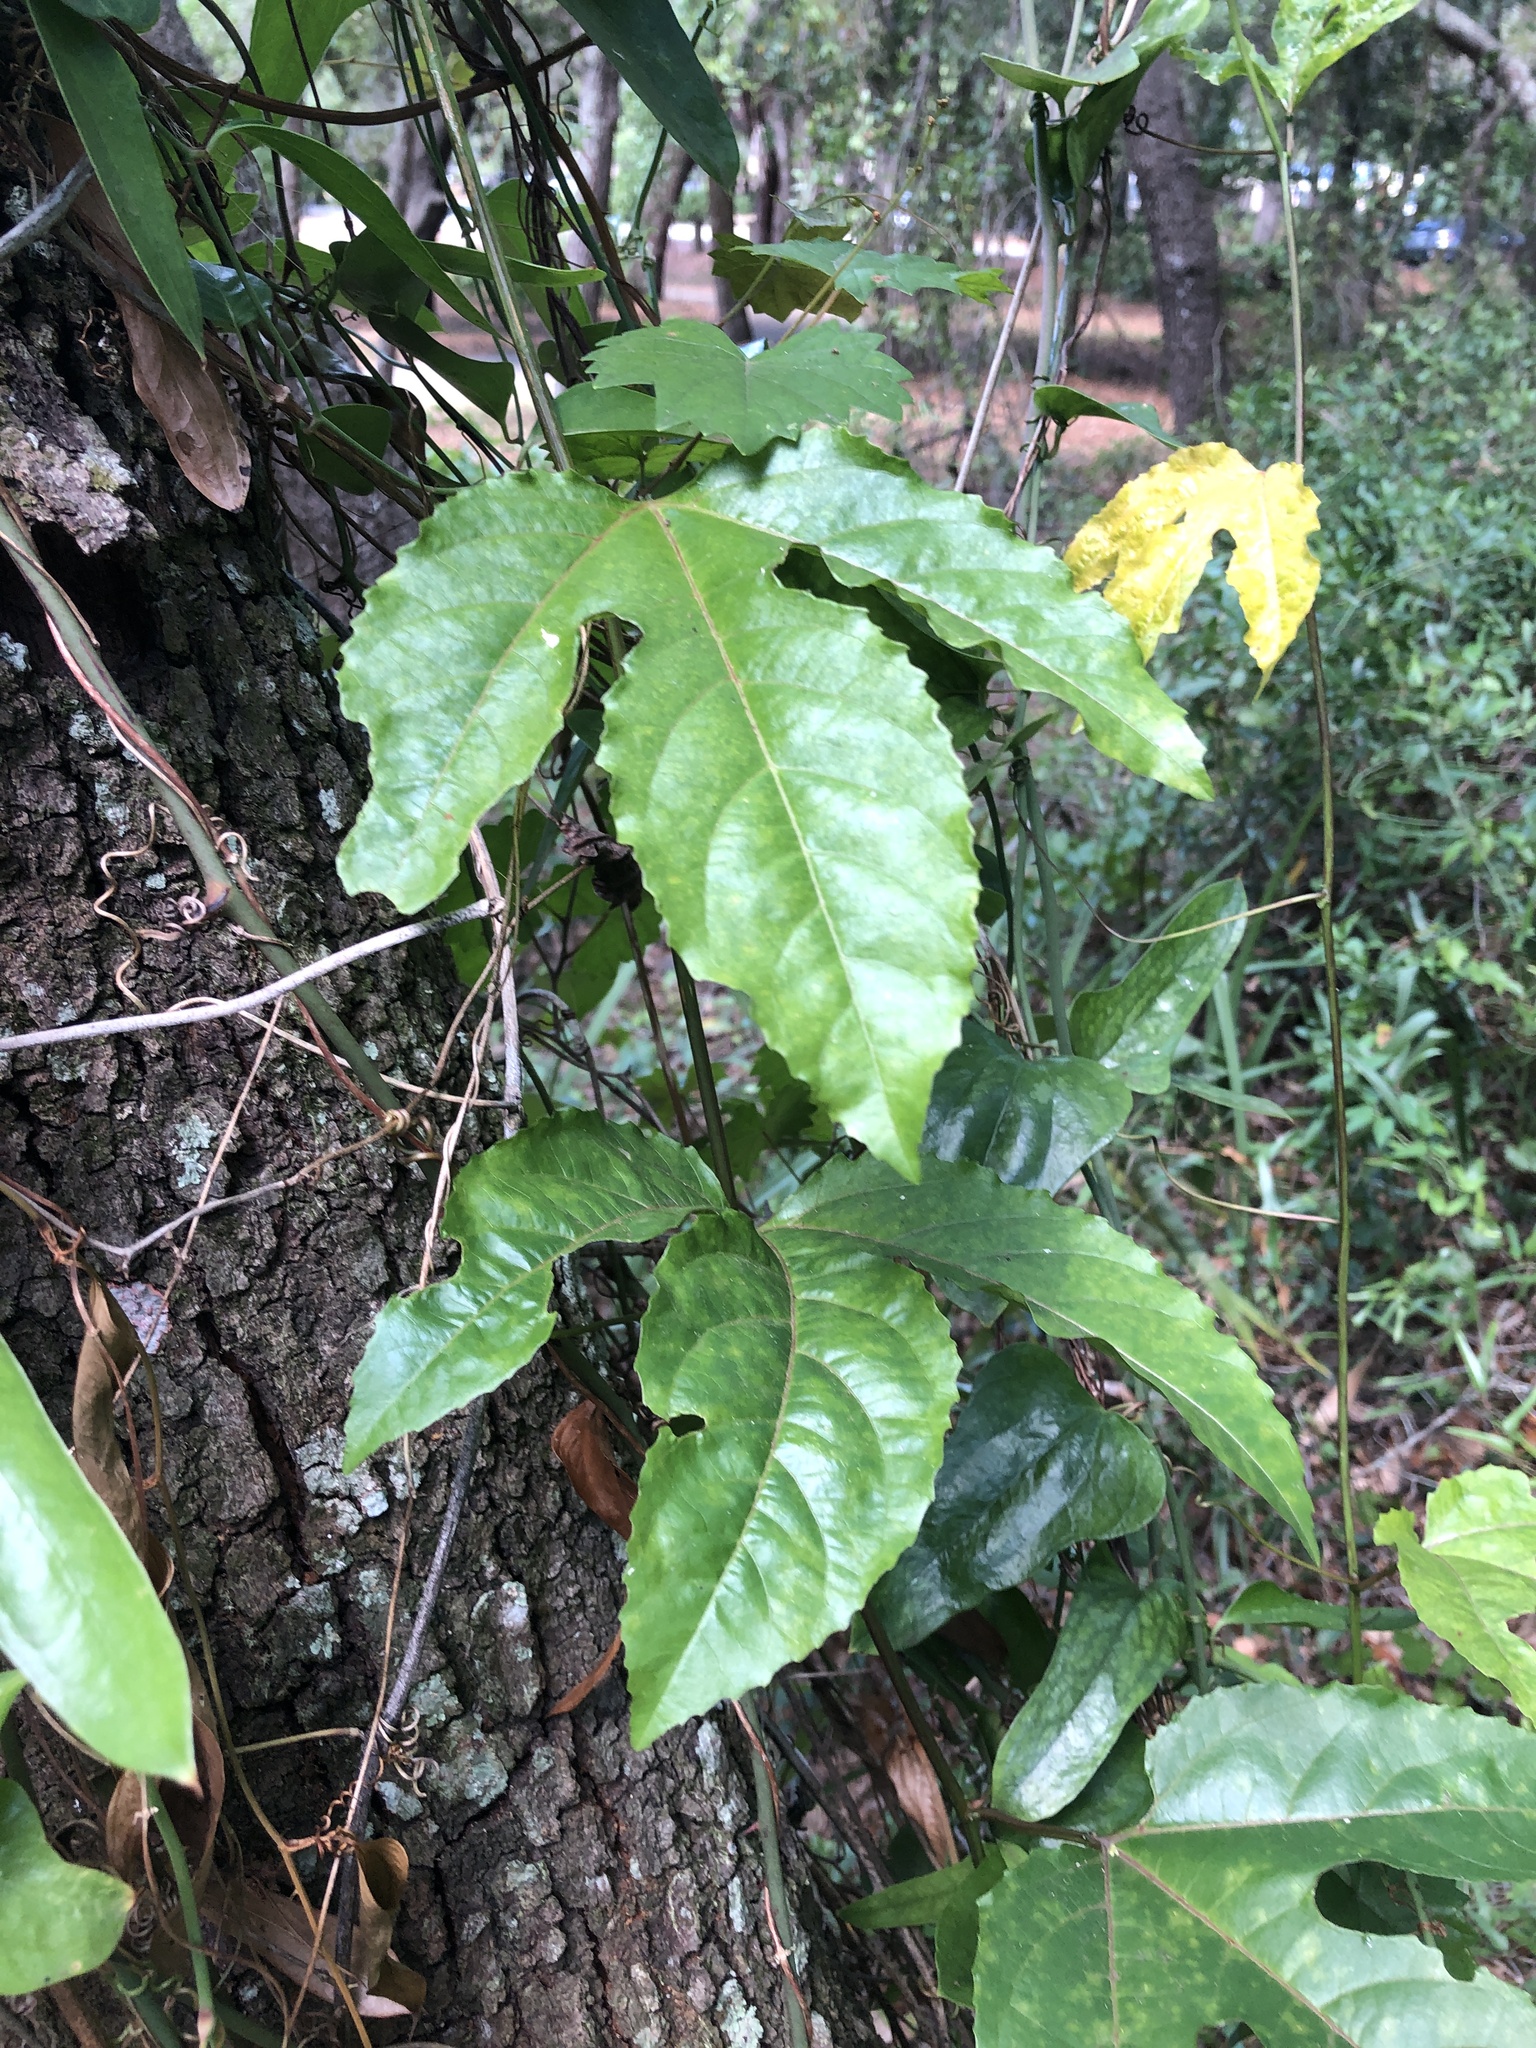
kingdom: Plantae
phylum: Tracheophyta
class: Magnoliopsida
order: Malpighiales
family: Passifloraceae
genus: Passiflora
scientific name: Passiflora edulis
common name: Purple granadilla
